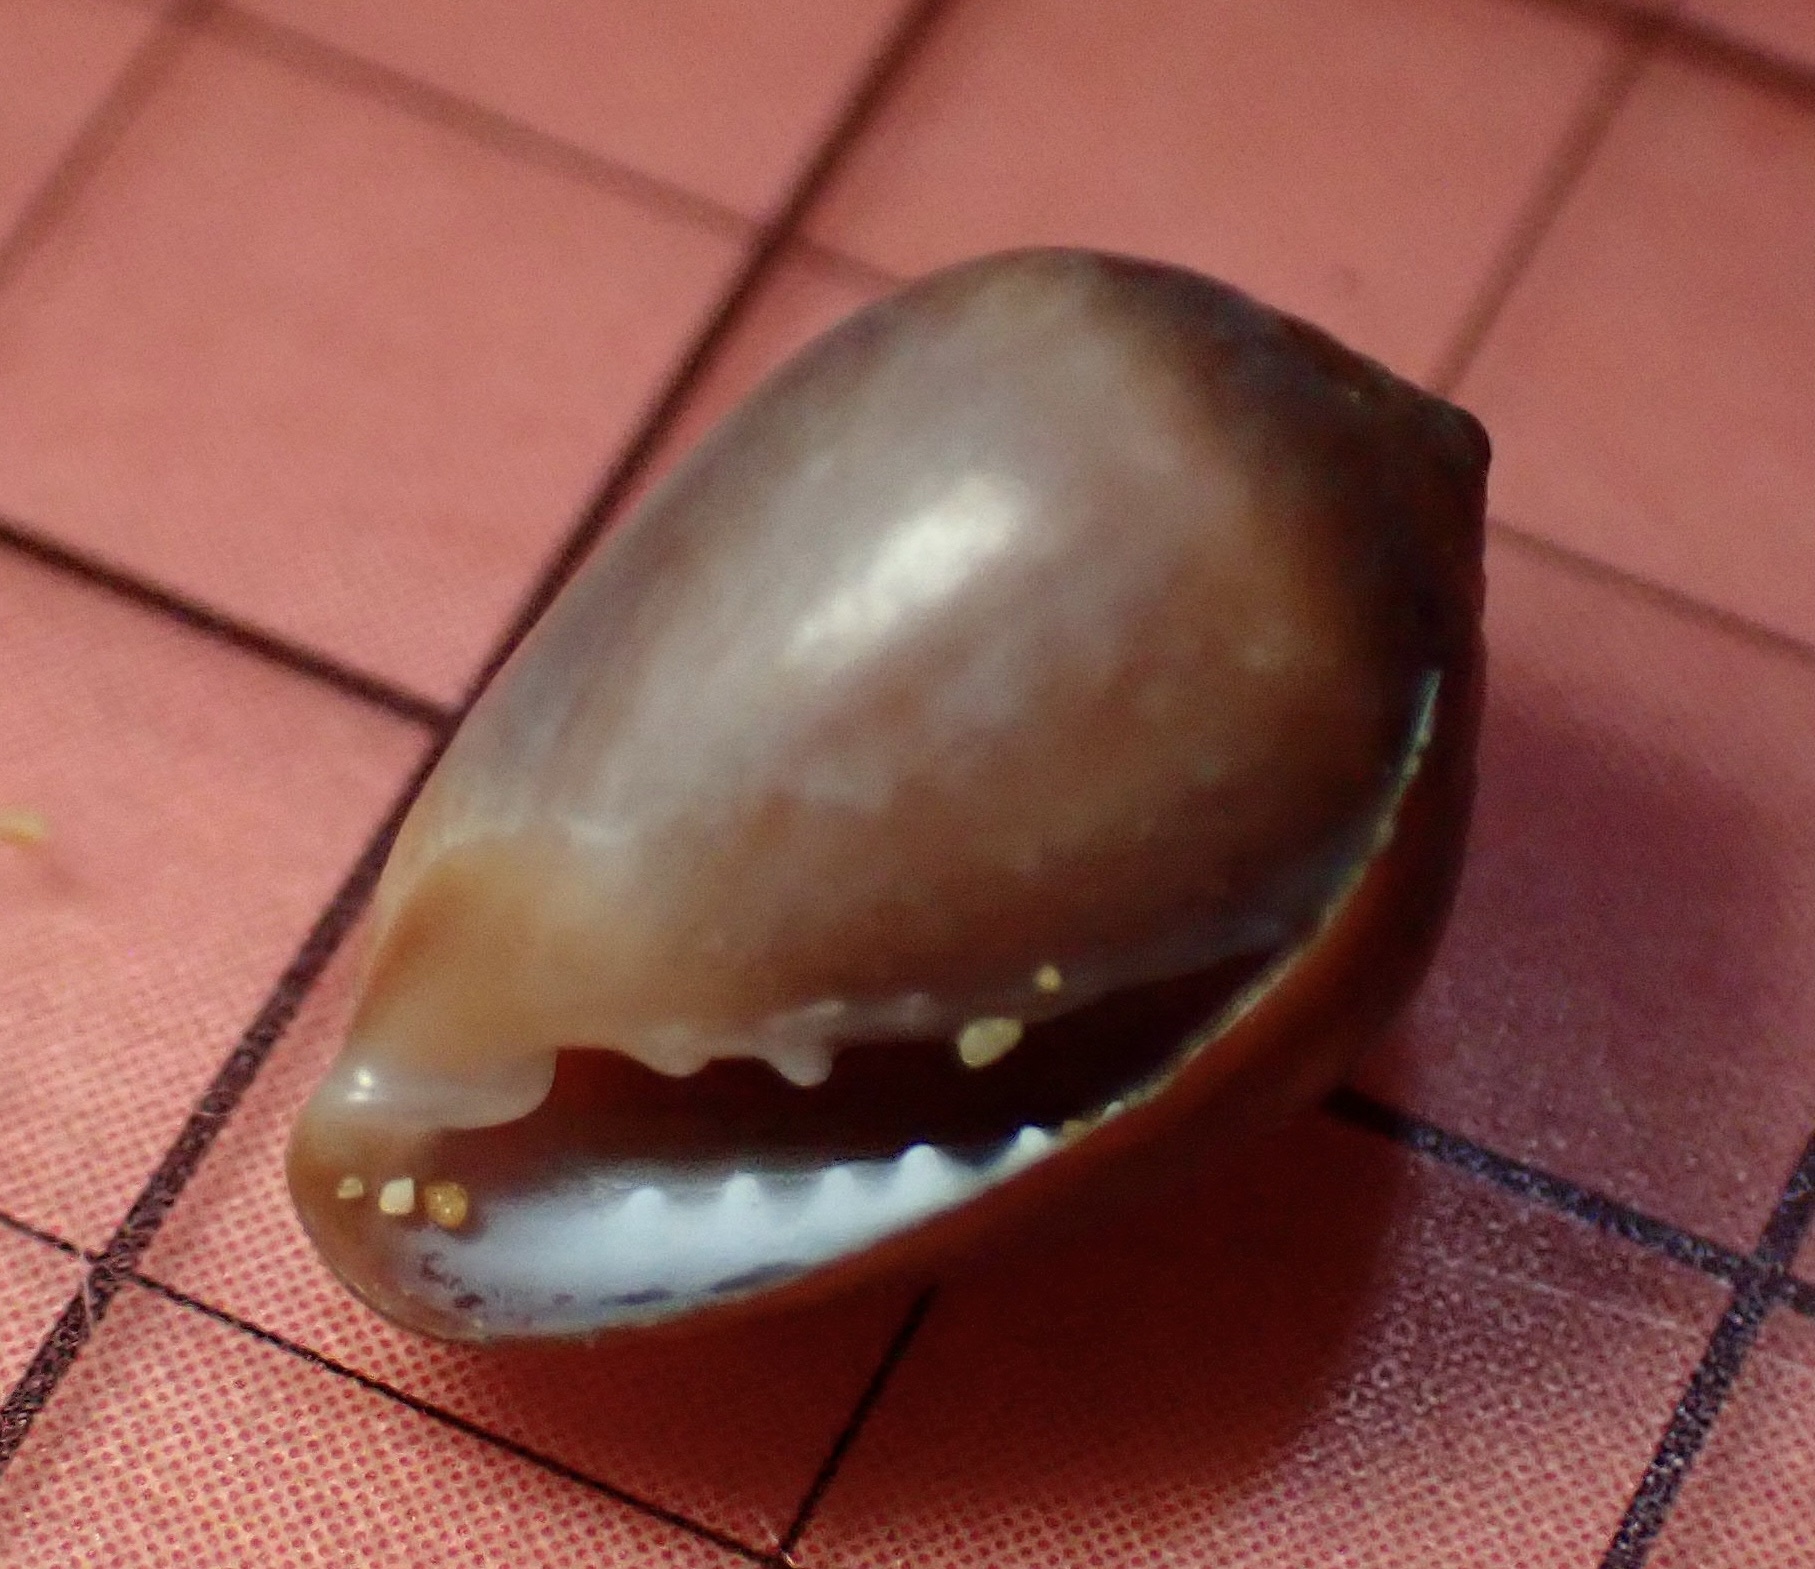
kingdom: Animalia
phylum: Mollusca
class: Gastropoda
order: Ellobiida
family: Ellobiidae
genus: Melampus
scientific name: Melampus castaneus
